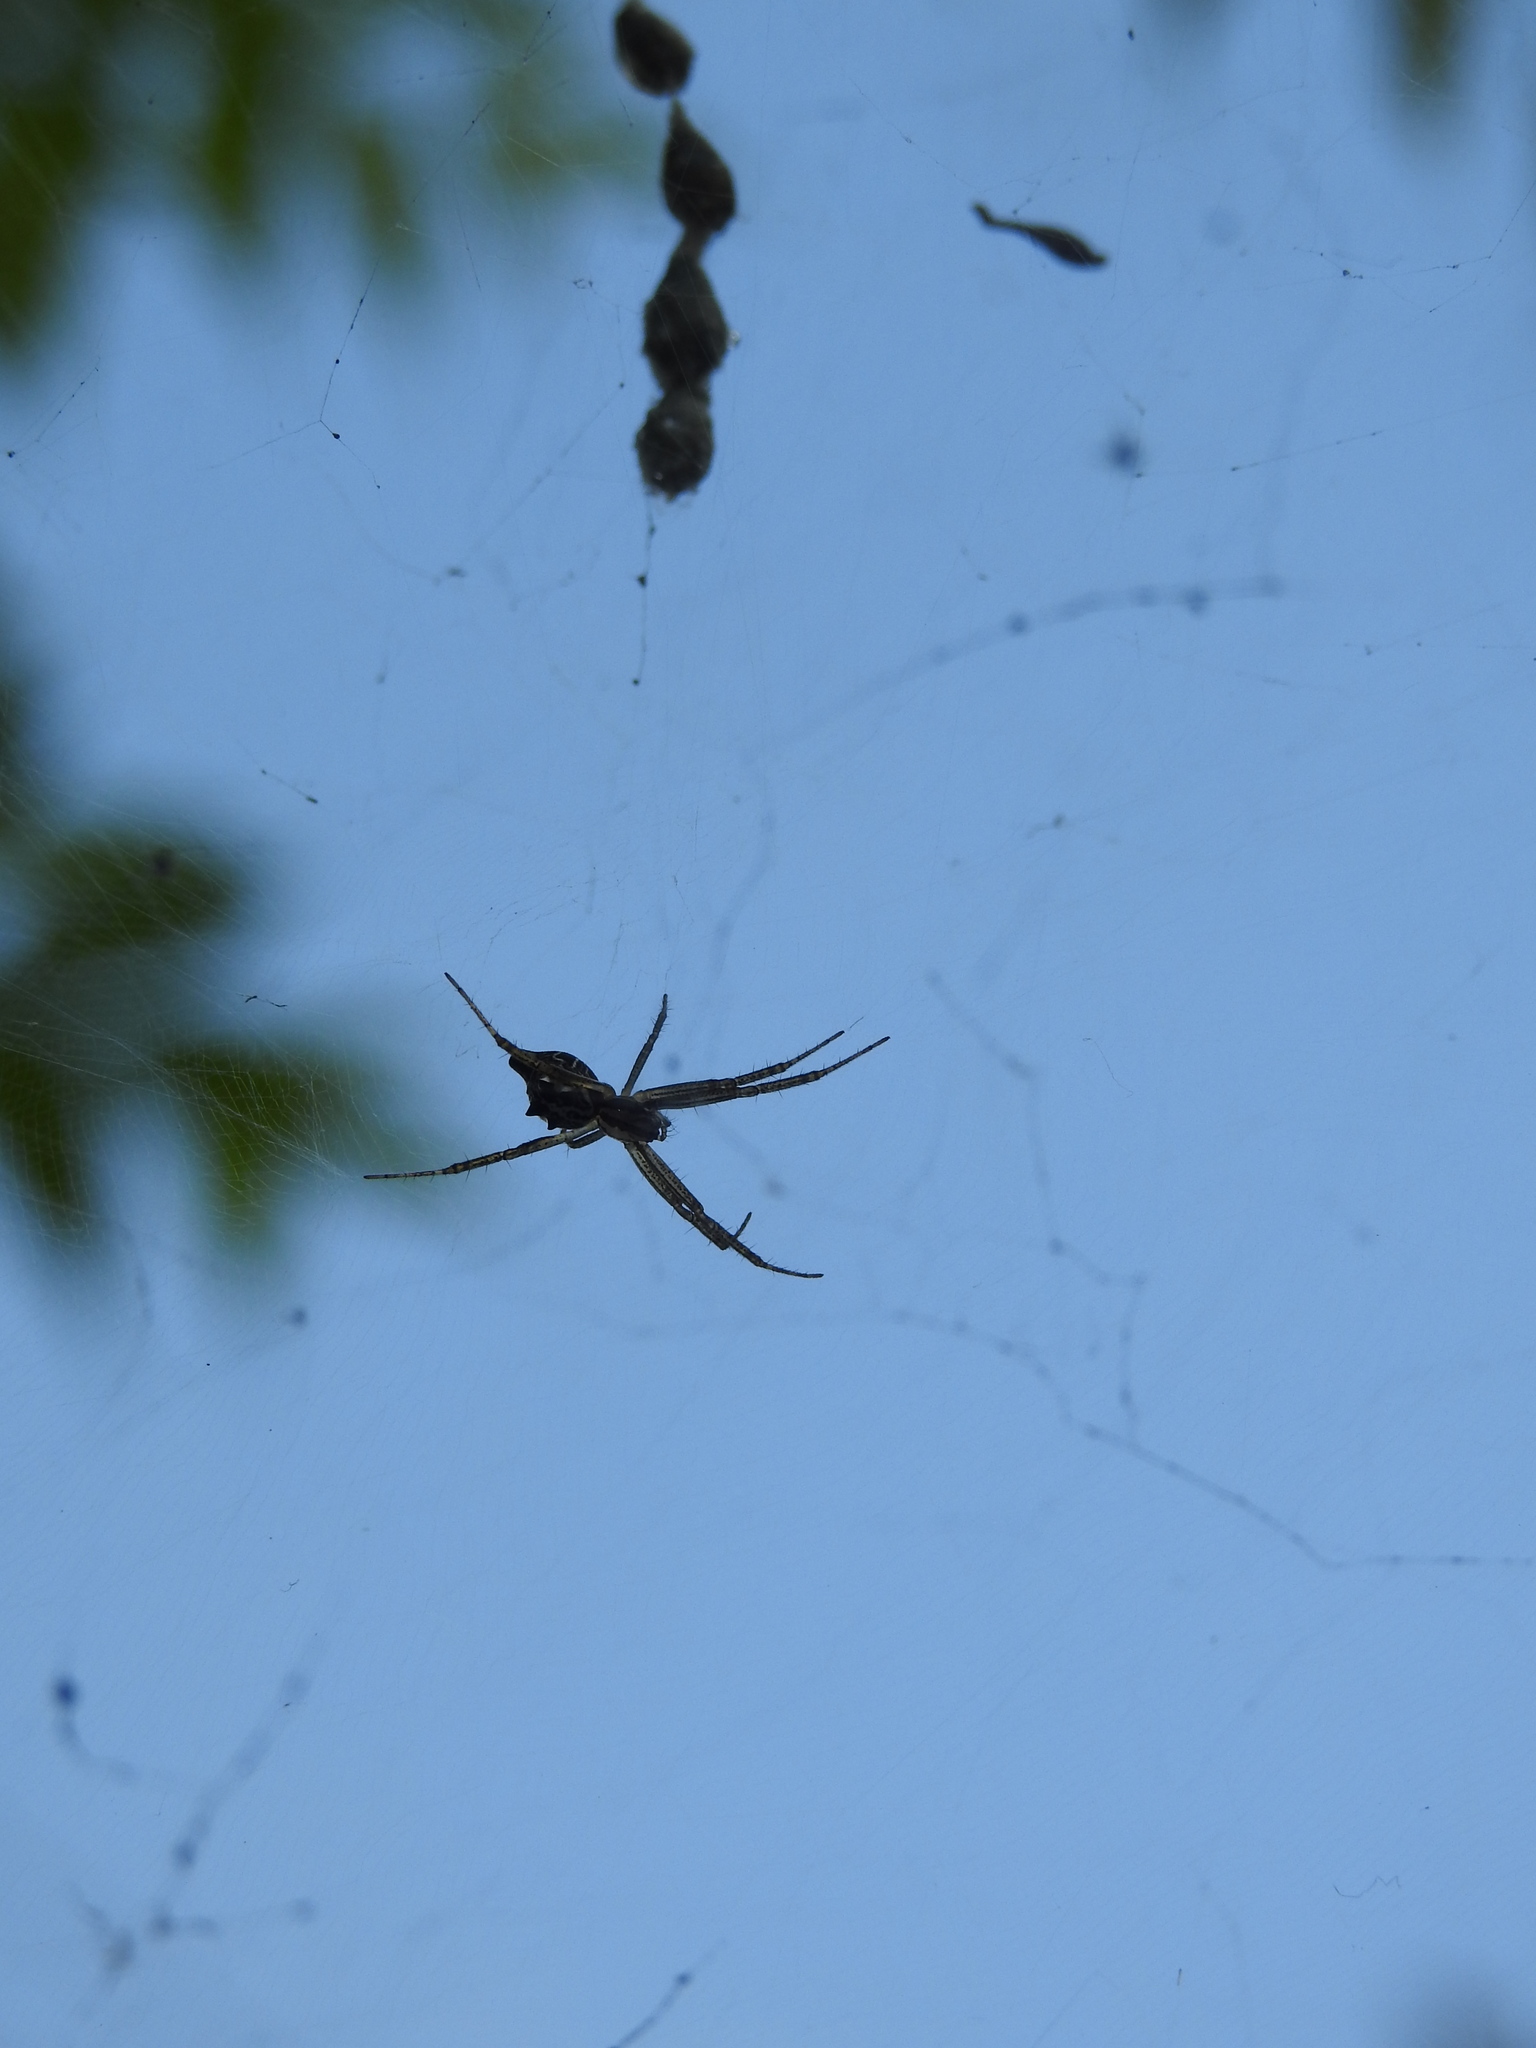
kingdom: Animalia
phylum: Arthropoda
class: Arachnida
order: Araneae
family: Araneidae
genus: Cyrtophora
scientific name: Cyrtophora cicatrosa
